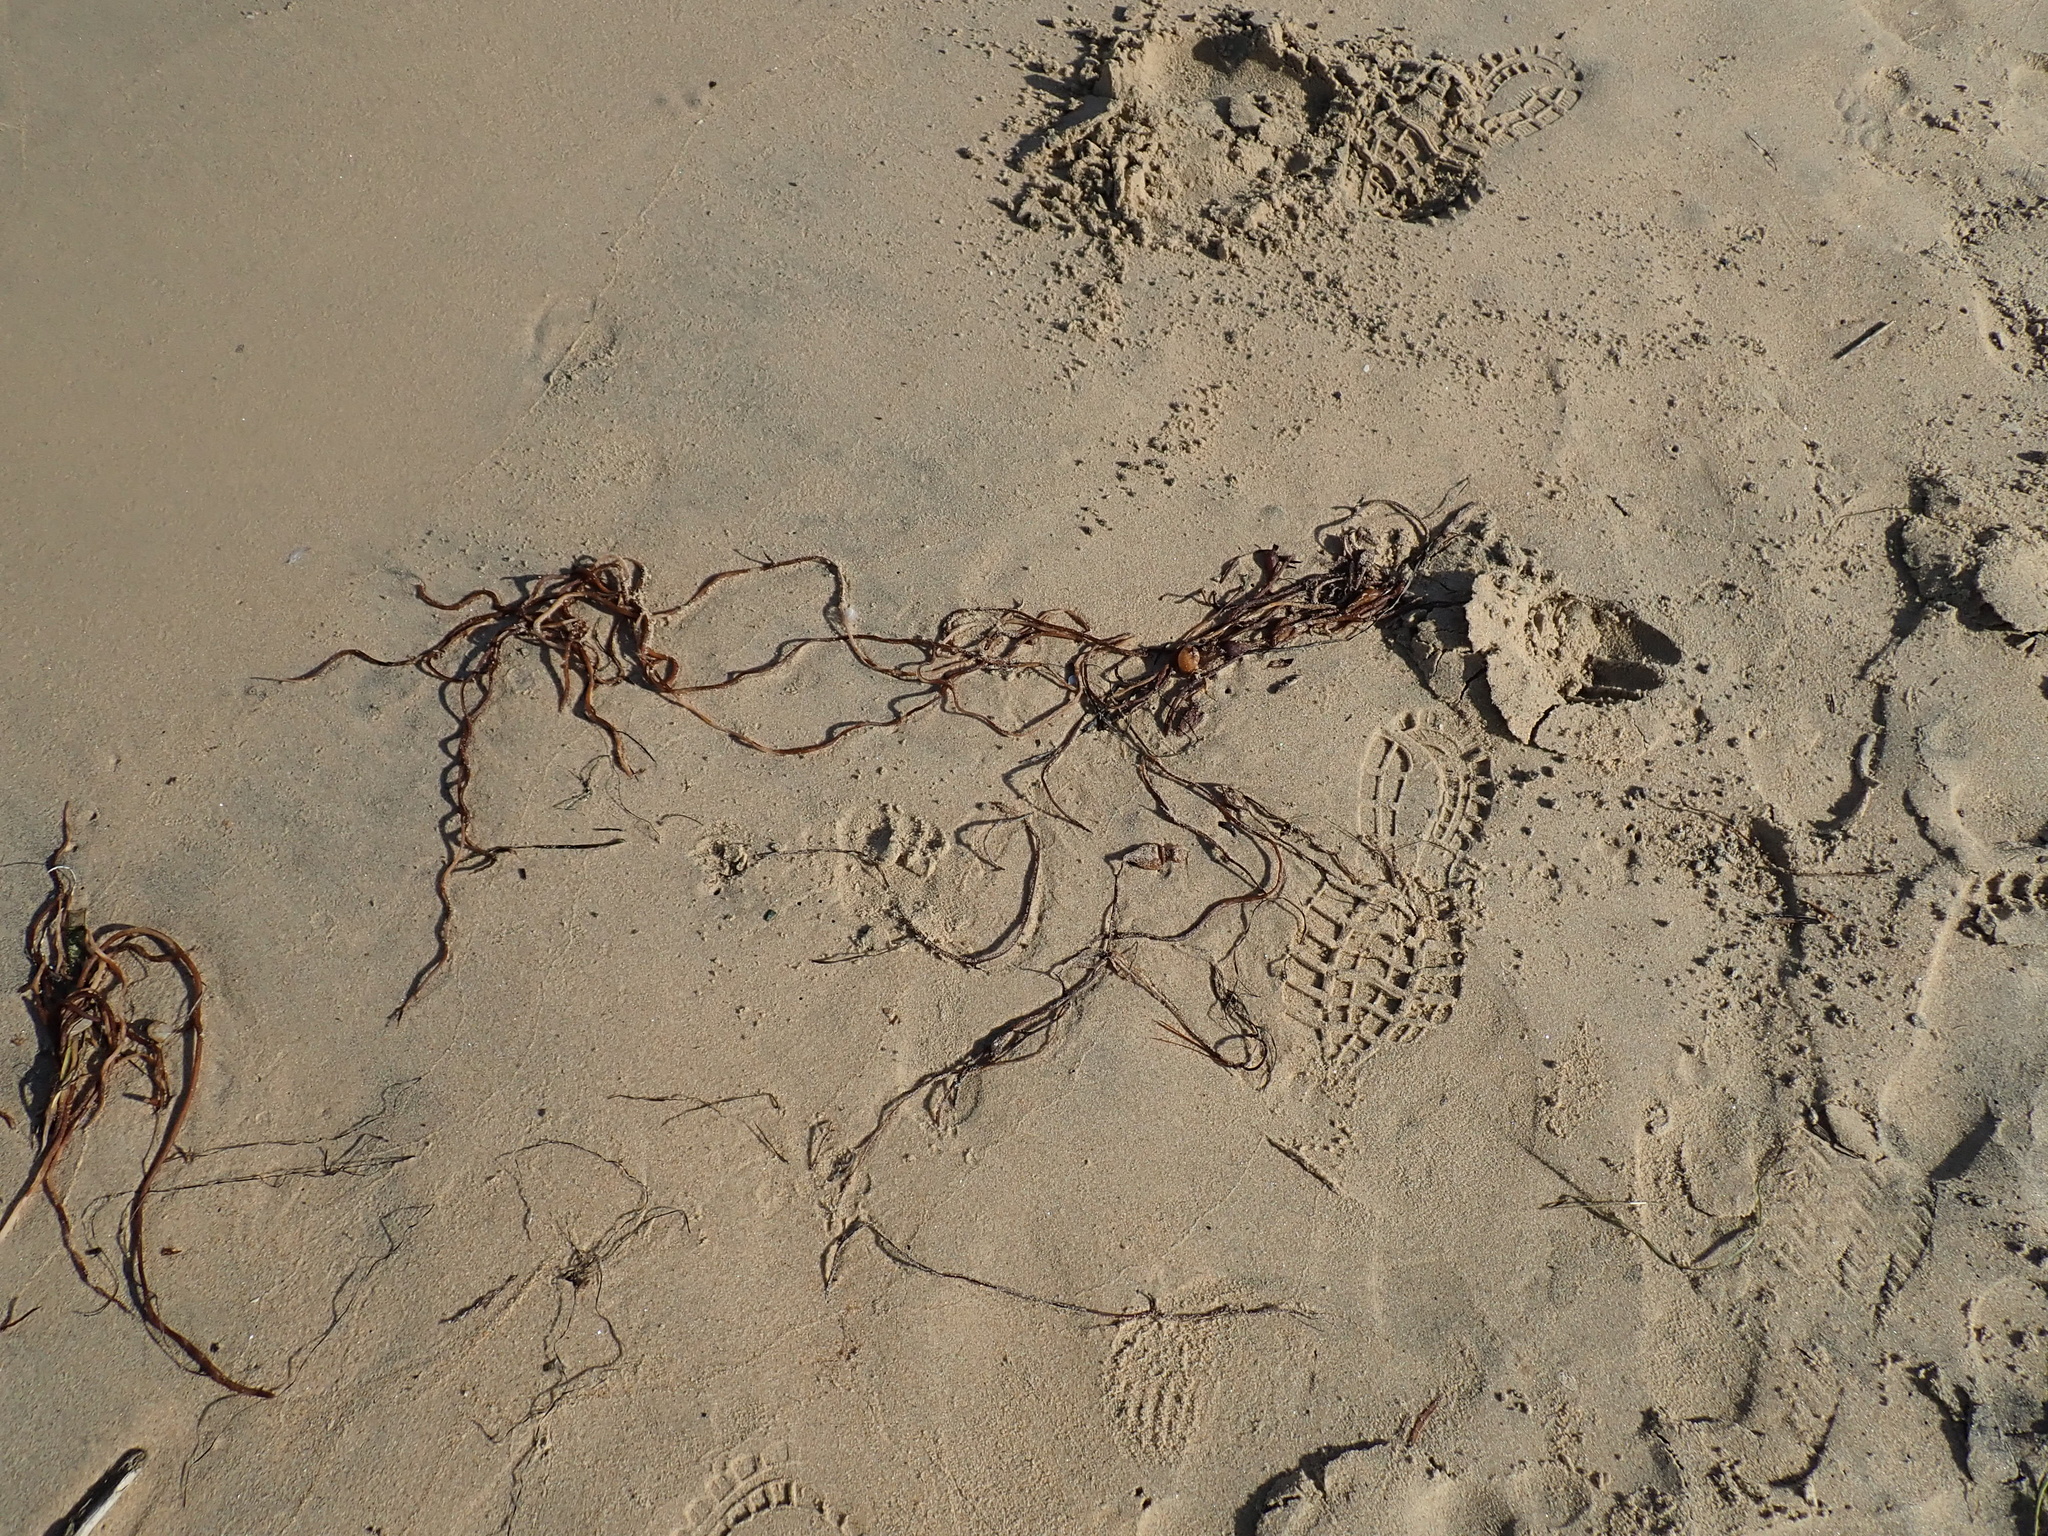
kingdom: Chromista
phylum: Ochrophyta
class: Phaeophyceae
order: Laminariales
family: Laminariaceae
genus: Macrocystis
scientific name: Macrocystis pyrifera
